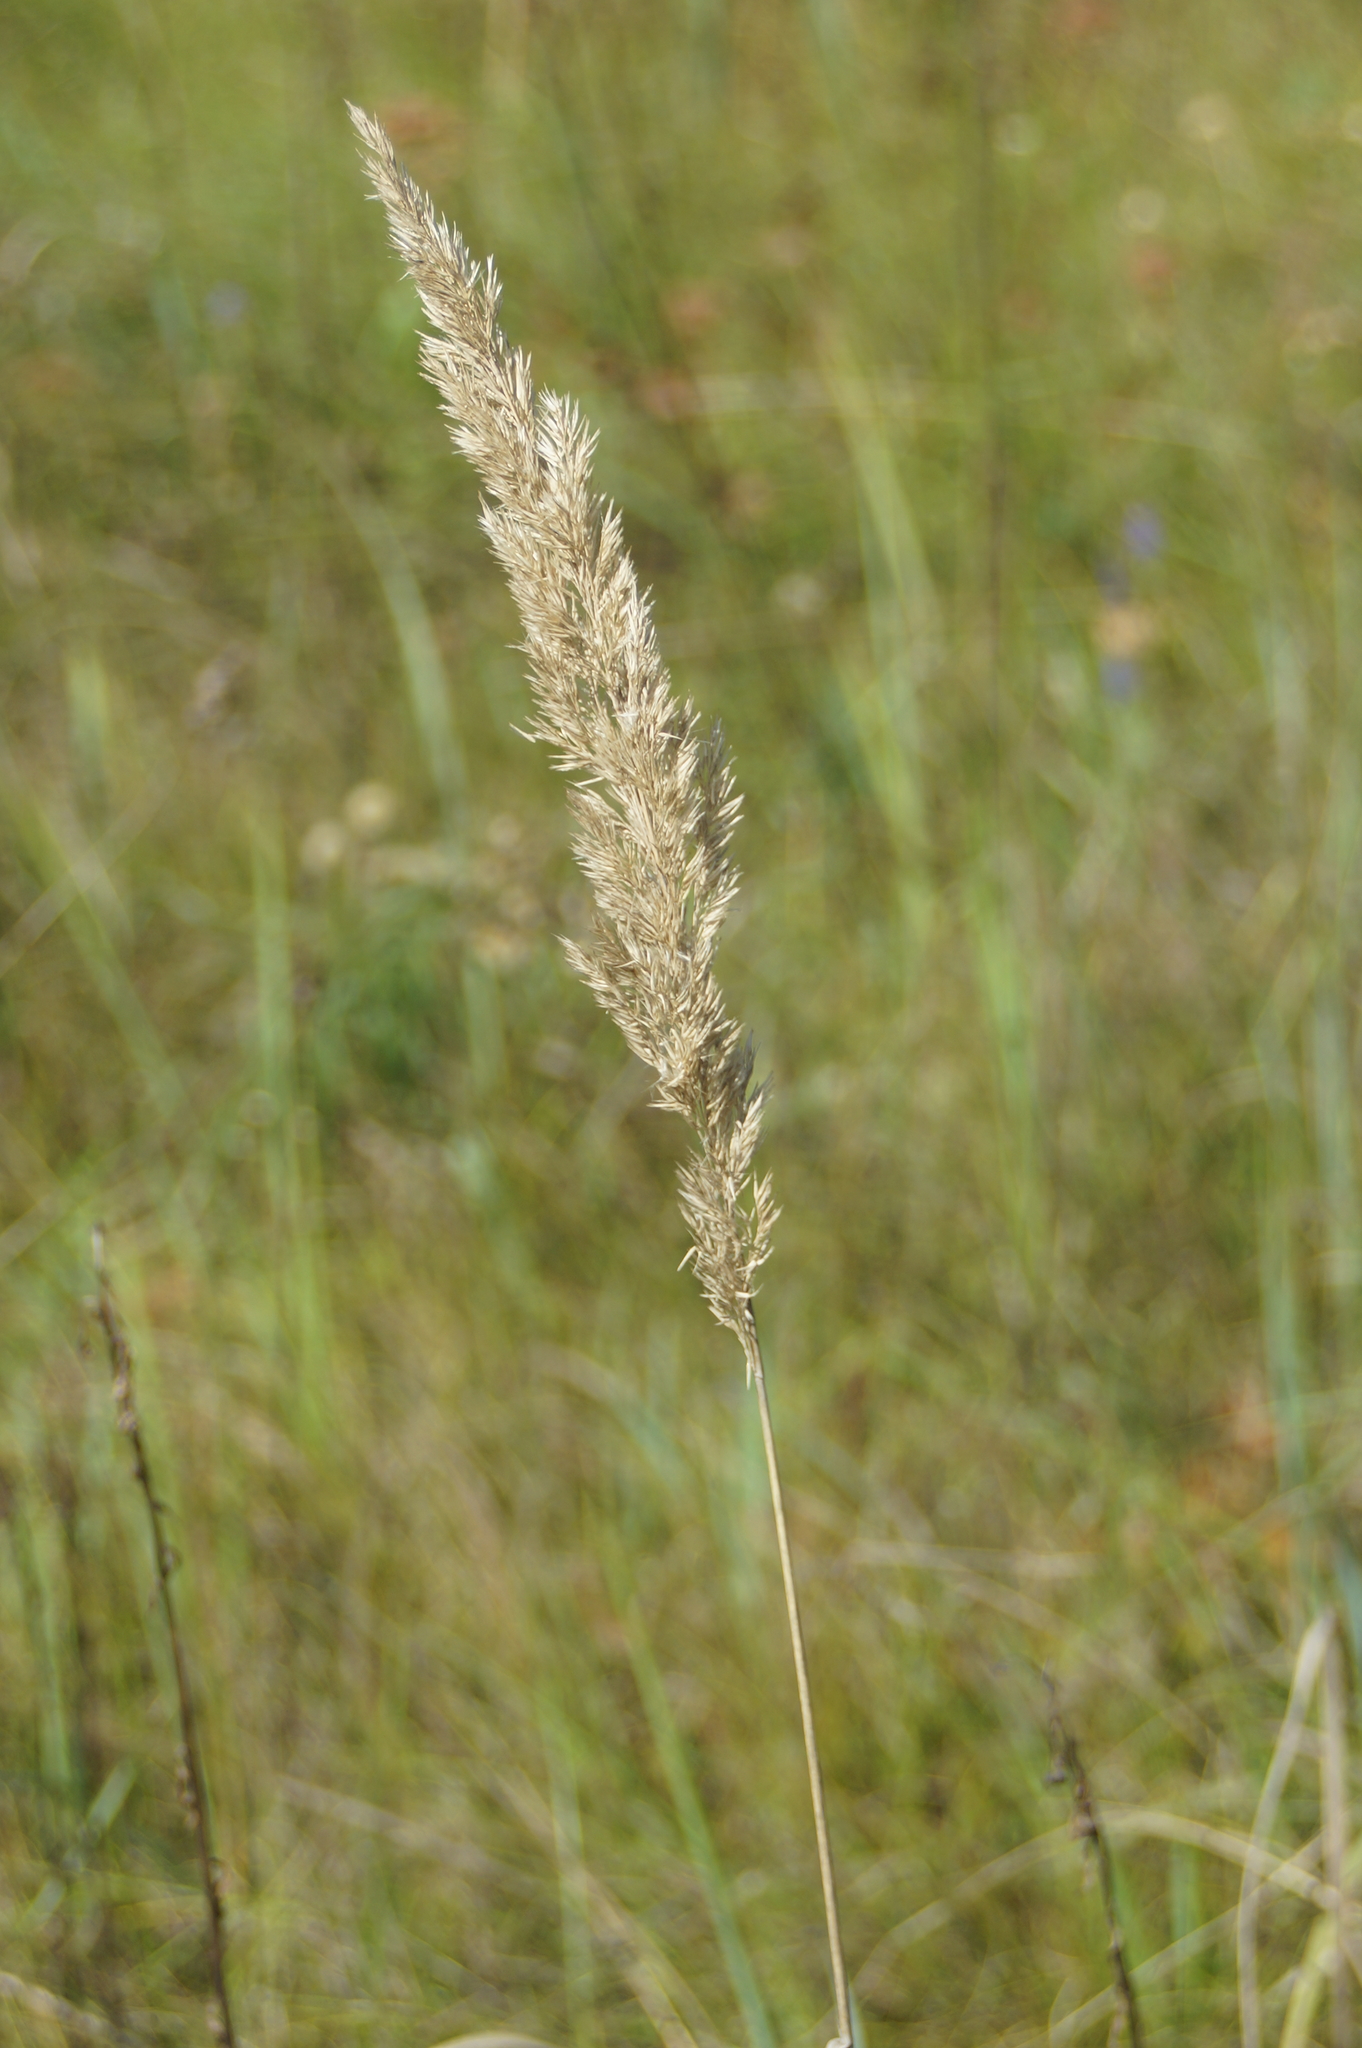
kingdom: Plantae
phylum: Tracheophyta
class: Liliopsida
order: Poales
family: Poaceae
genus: Calamagrostis
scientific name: Calamagrostis epigejos
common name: Wood small-reed
